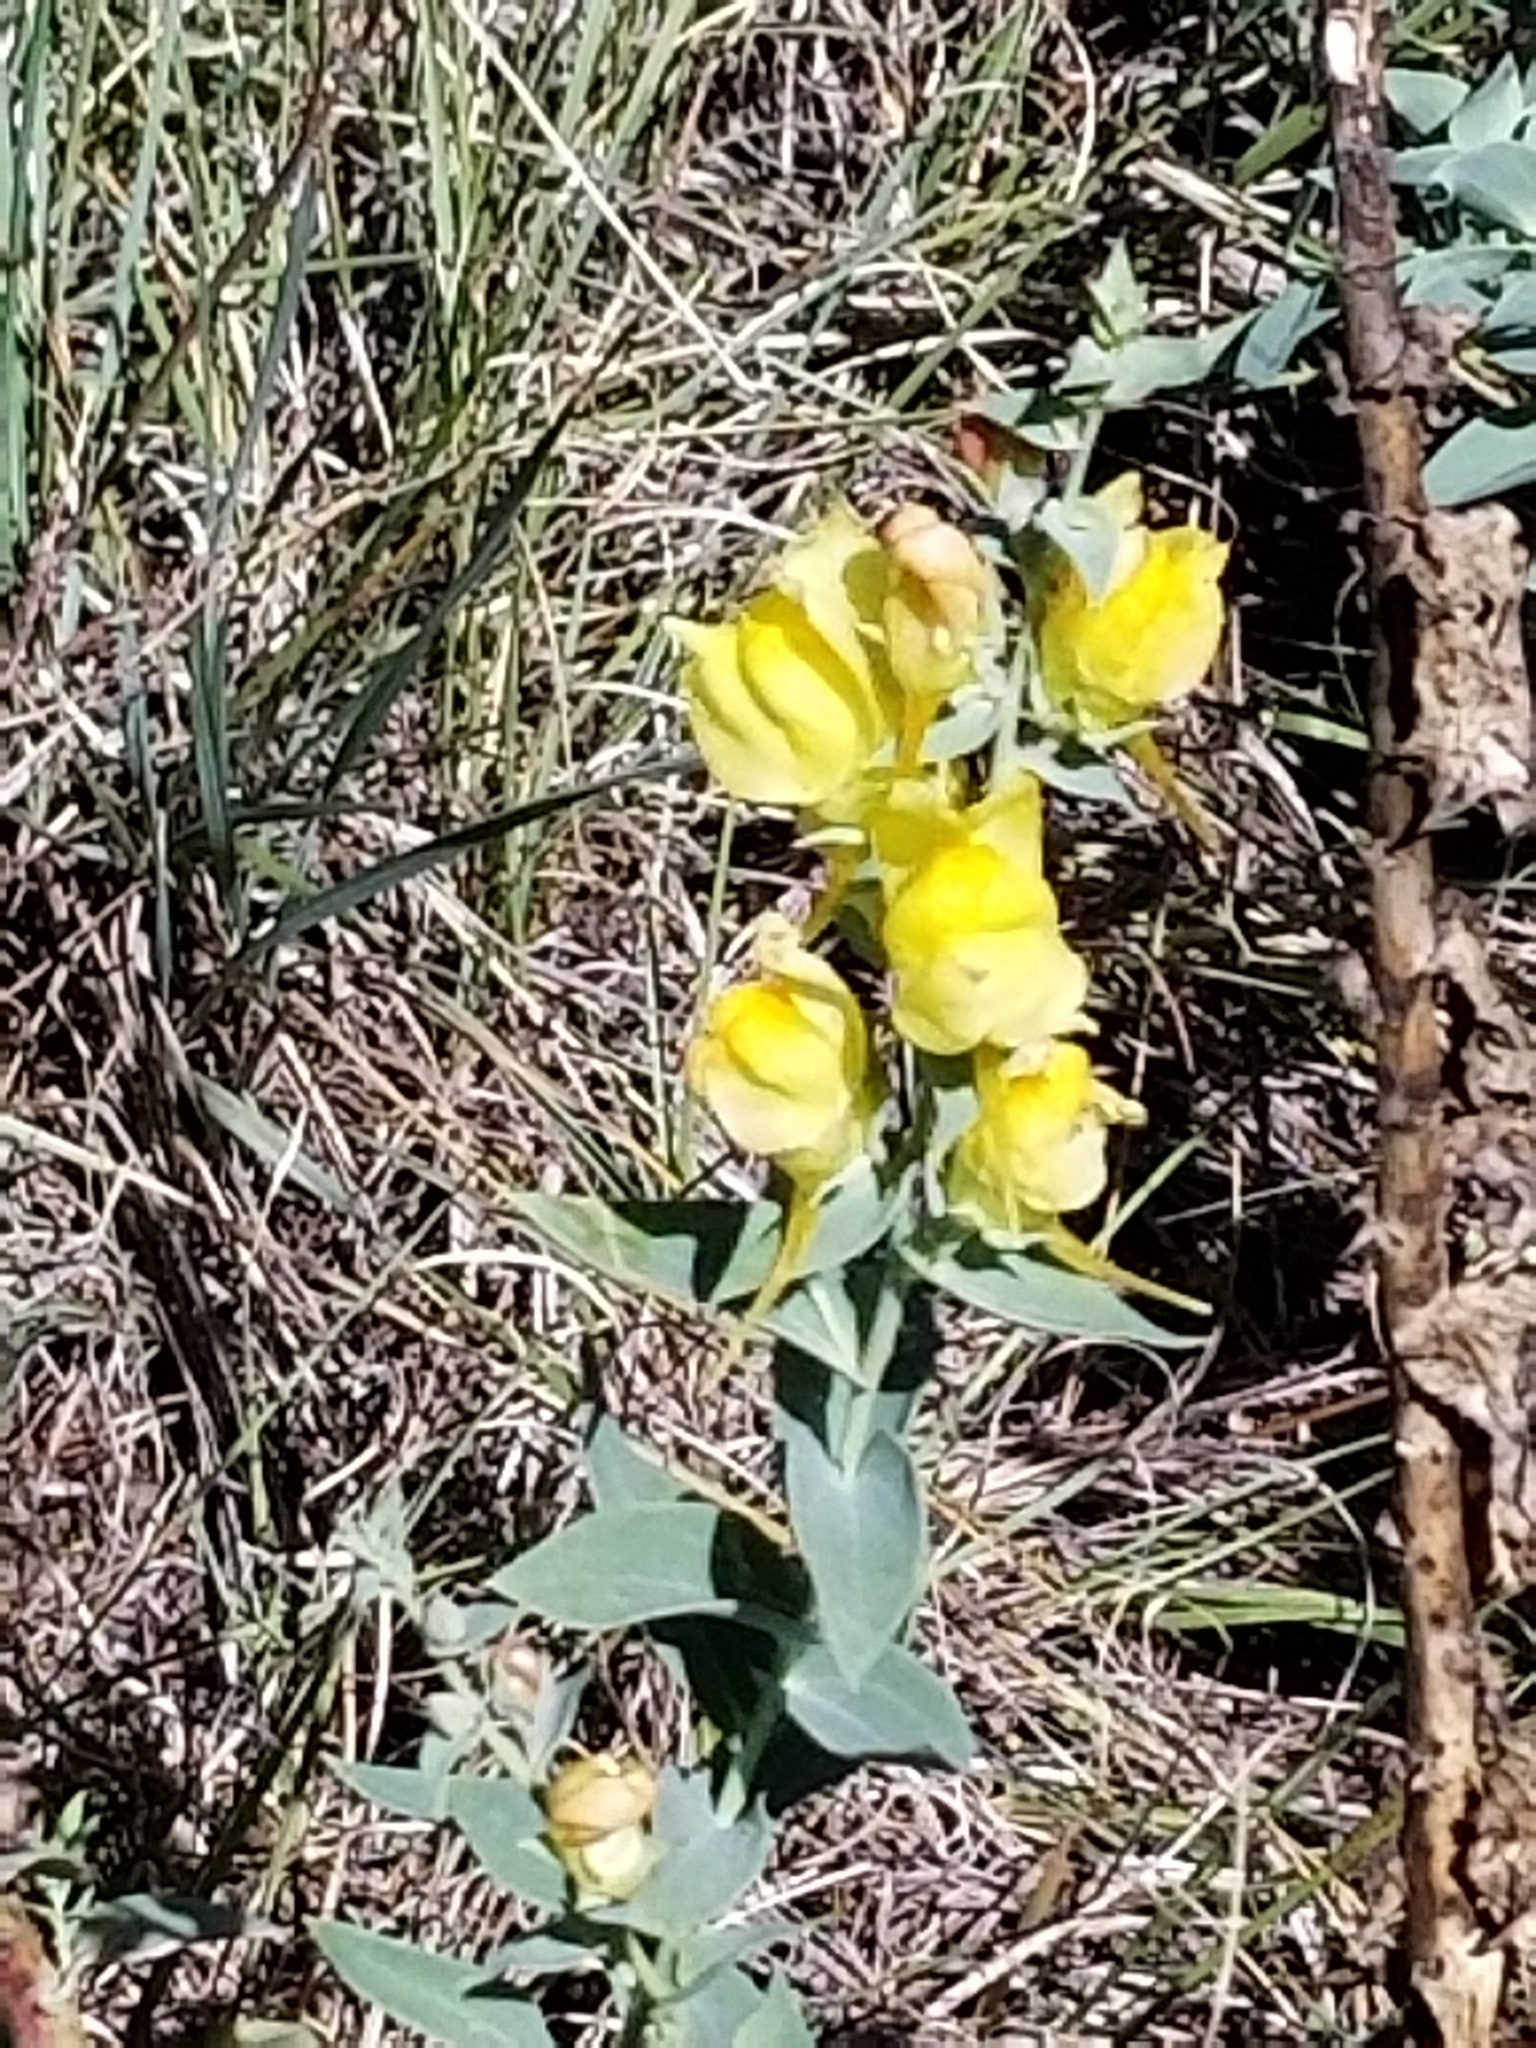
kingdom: Plantae
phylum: Tracheophyta
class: Magnoliopsida
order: Lamiales
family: Plantaginaceae
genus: Linaria
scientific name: Linaria dalmatica
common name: Dalmatian toadflax
